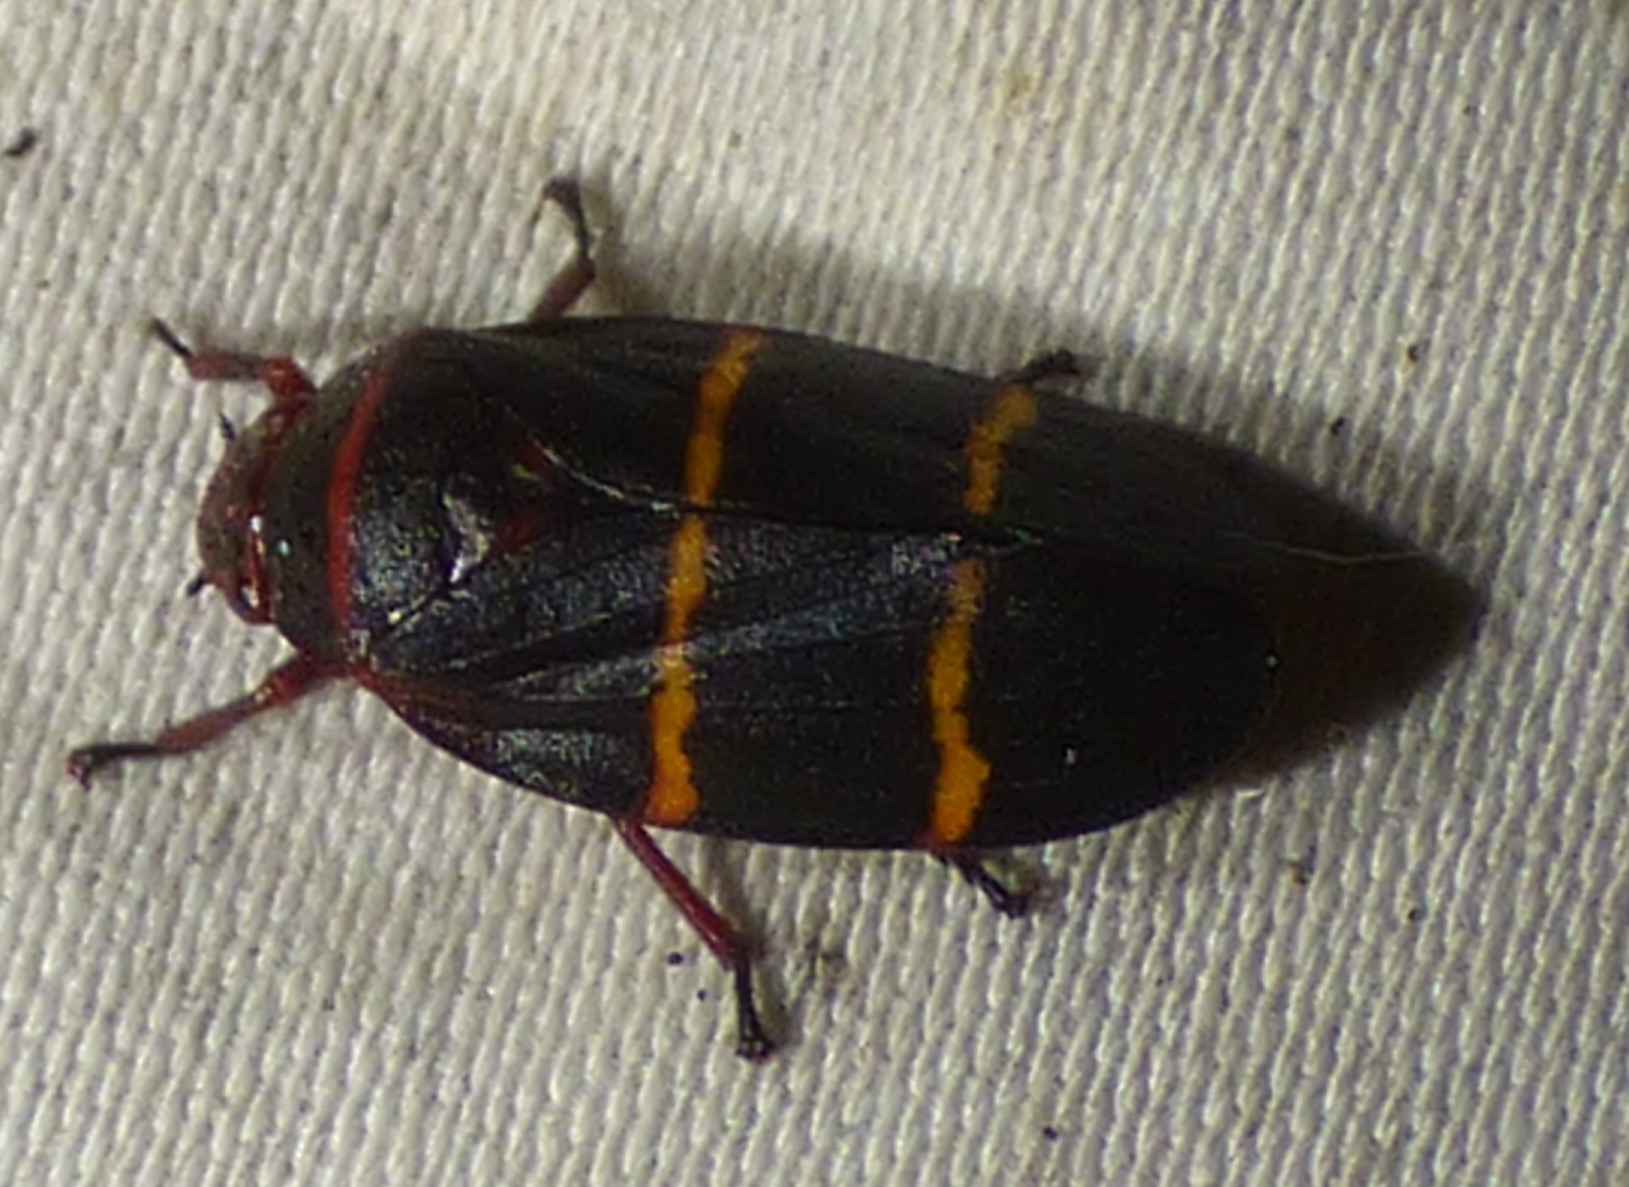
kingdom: Animalia
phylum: Arthropoda
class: Insecta
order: Hemiptera
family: Cercopidae
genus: Prosapia
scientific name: Prosapia bicincta
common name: Twolined spittlebug
